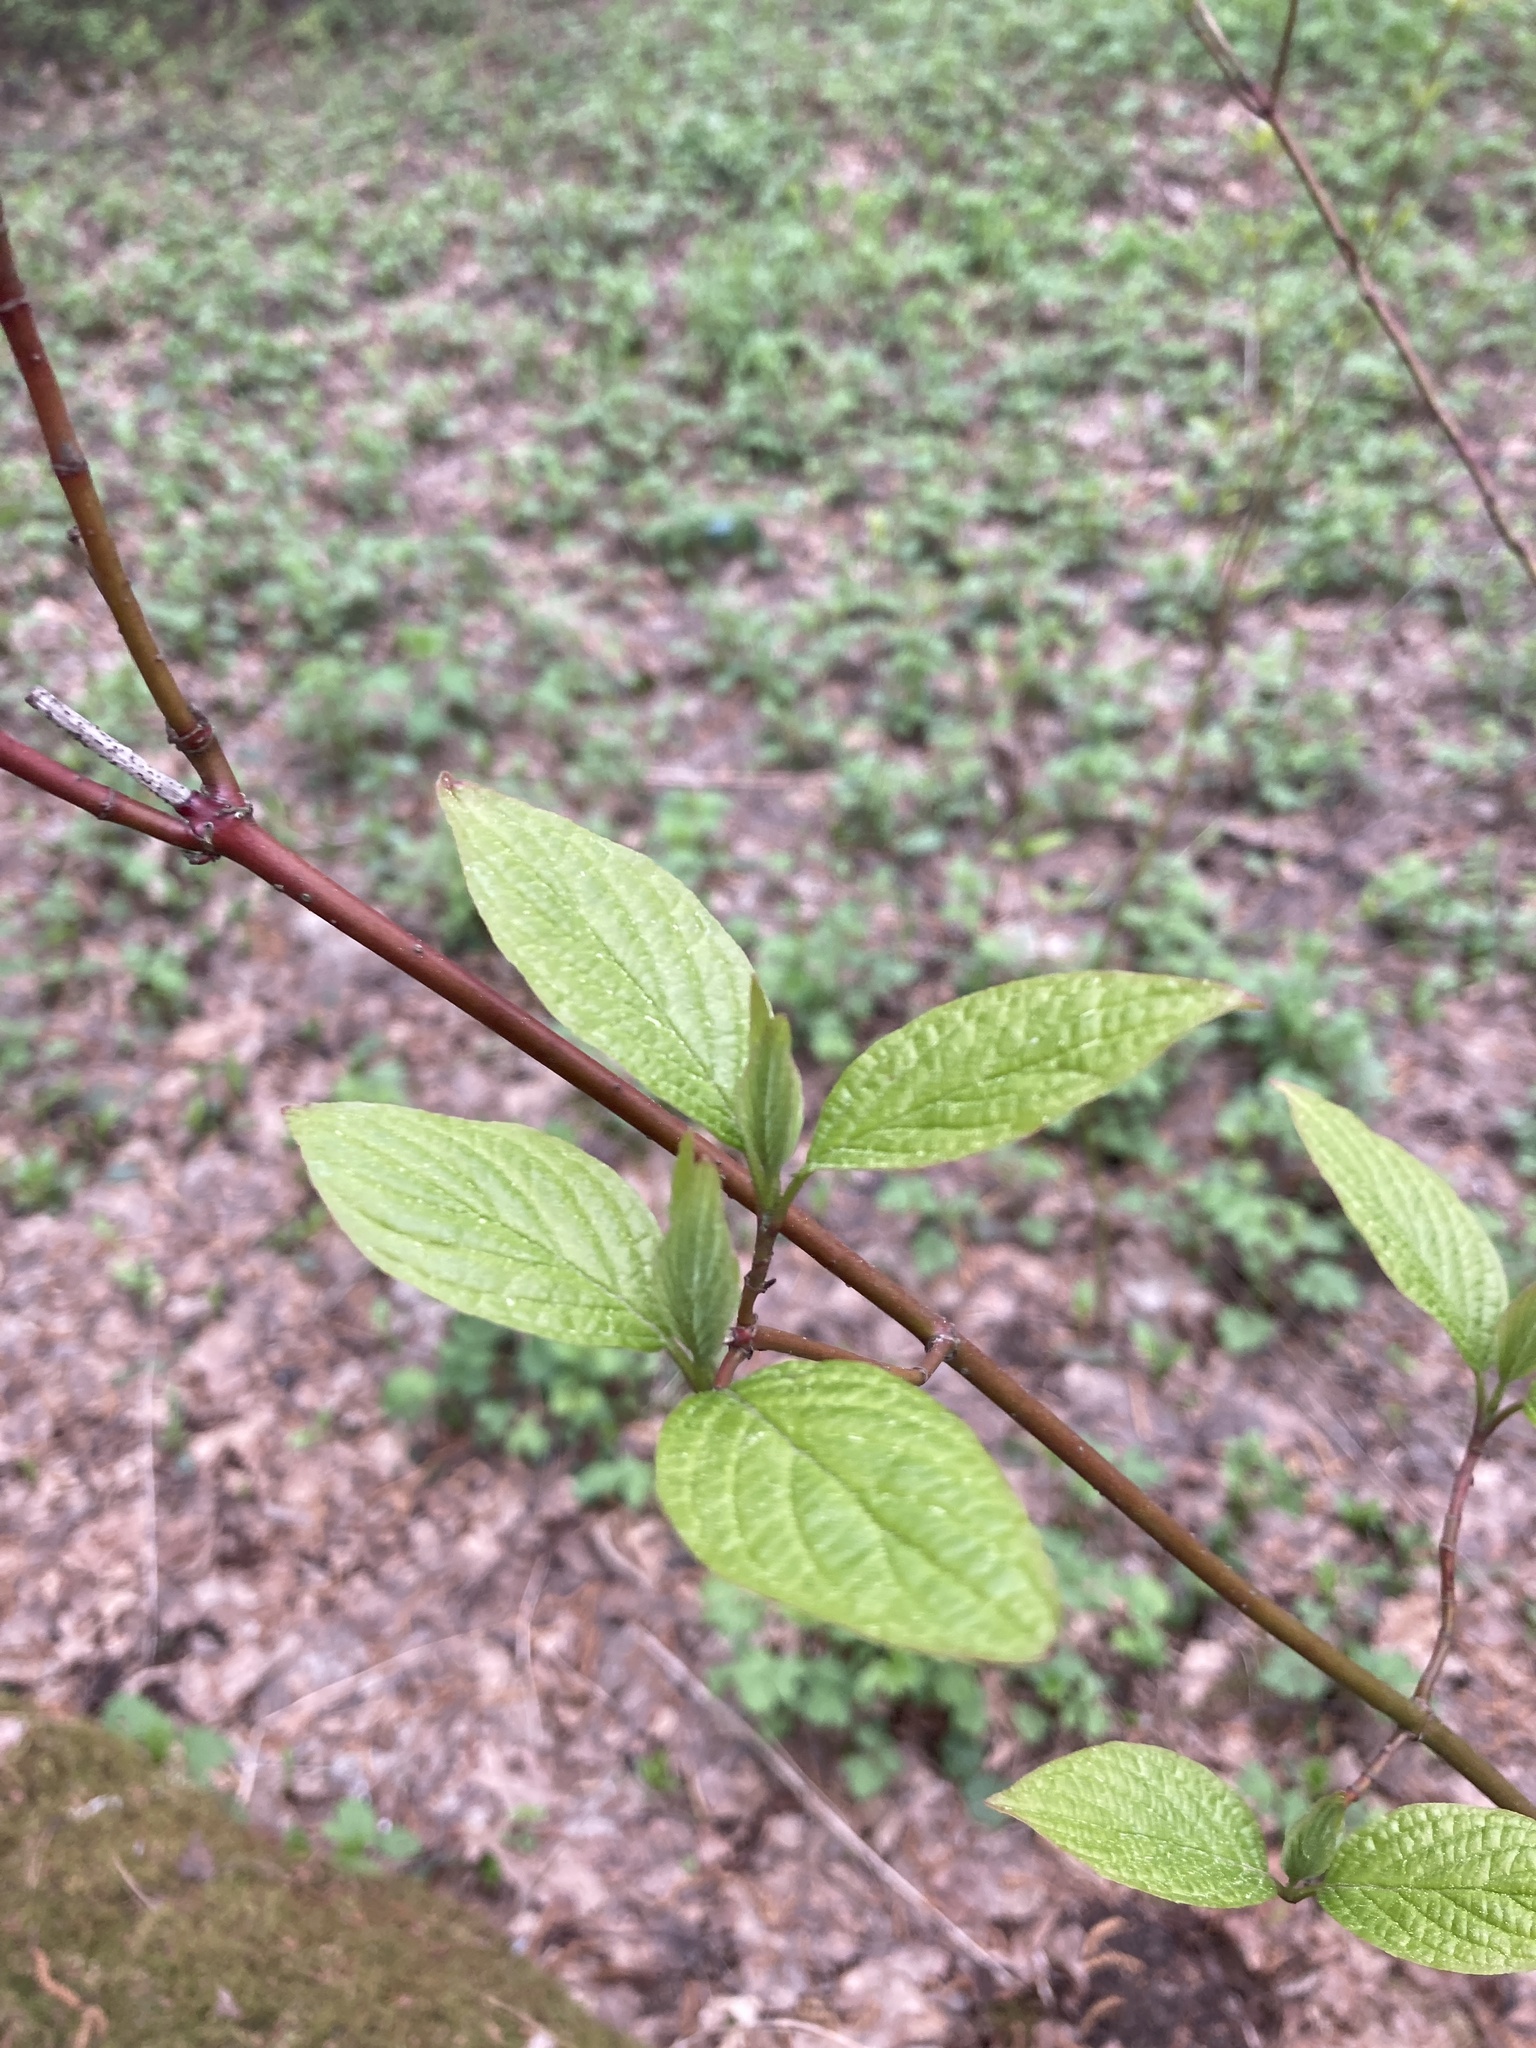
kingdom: Plantae
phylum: Tracheophyta
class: Magnoliopsida
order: Cornales
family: Cornaceae
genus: Cornus
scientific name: Cornus sericea
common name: Red-osier dogwood
